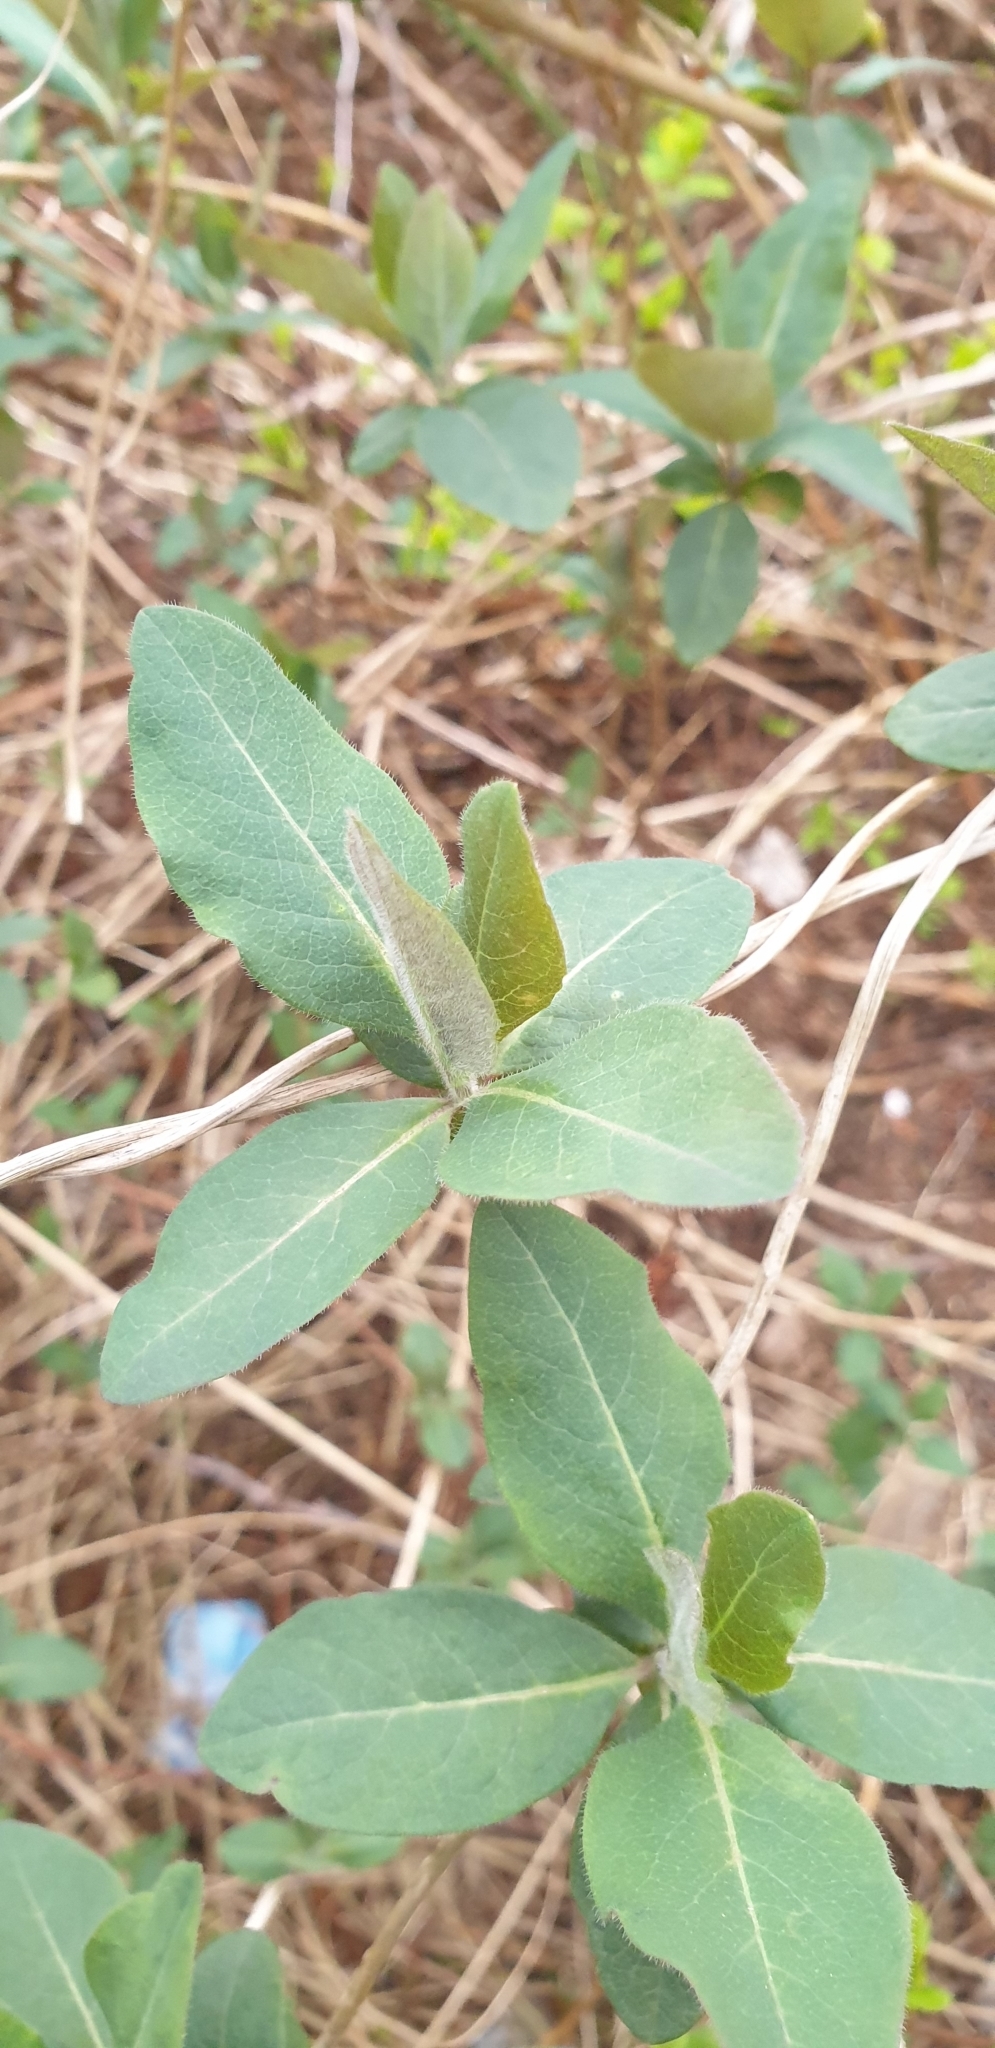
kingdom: Plantae
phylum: Tracheophyta
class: Magnoliopsida
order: Dipsacales
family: Caprifoliaceae
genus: Lonicera
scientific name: Lonicera periclymenum
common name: European honeysuckle
